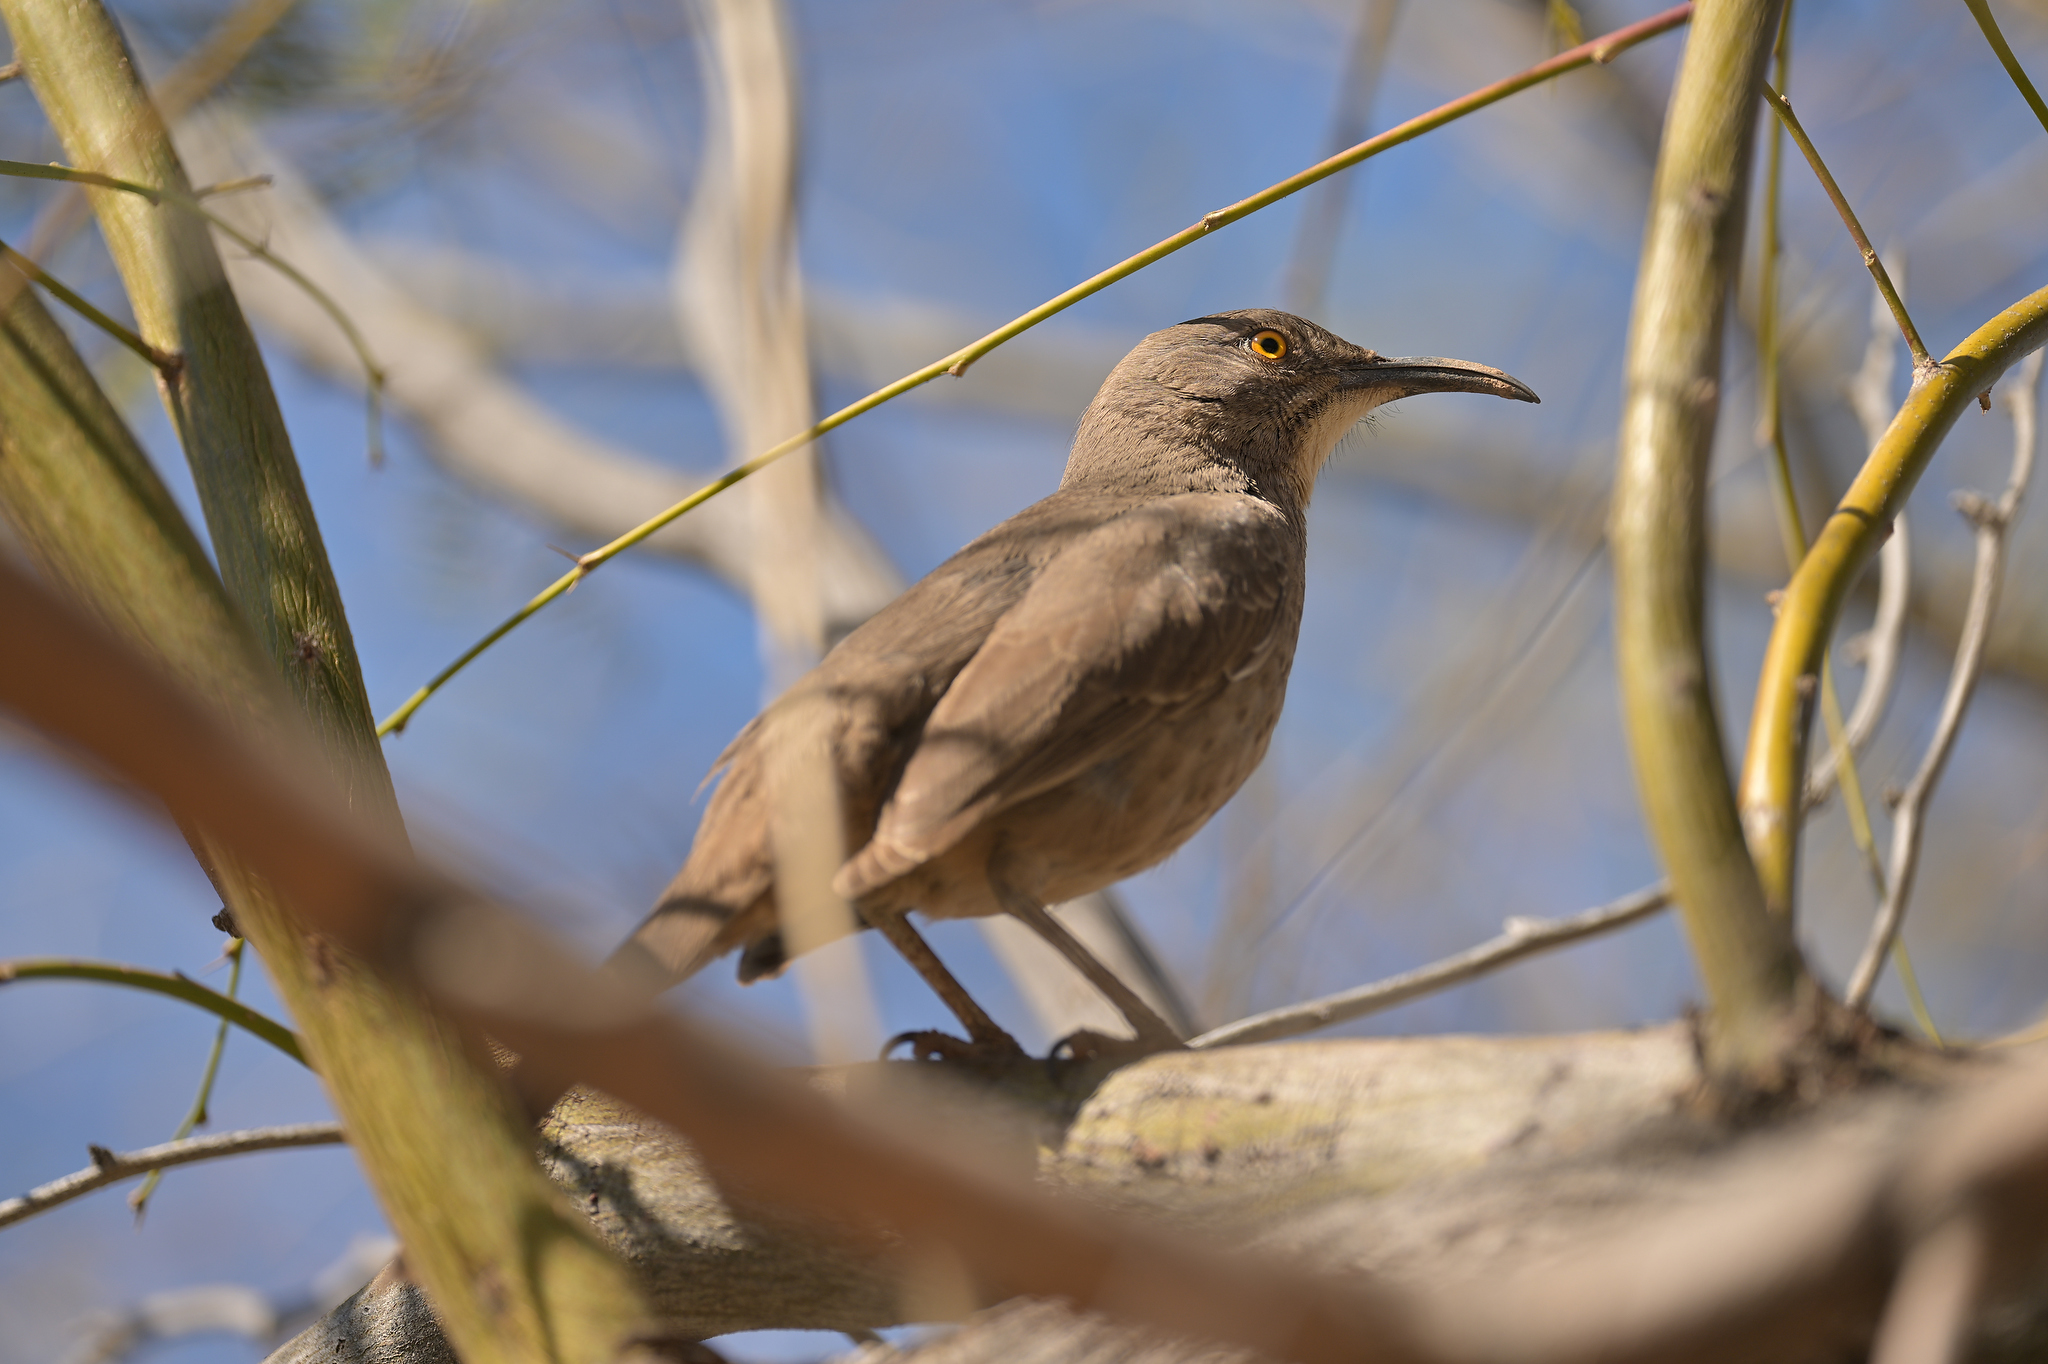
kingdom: Animalia
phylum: Chordata
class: Aves
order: Passeriformes
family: Mimidae
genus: Toxostoma
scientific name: Toxostoma curvirostre
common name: Curve-billed thrasher
